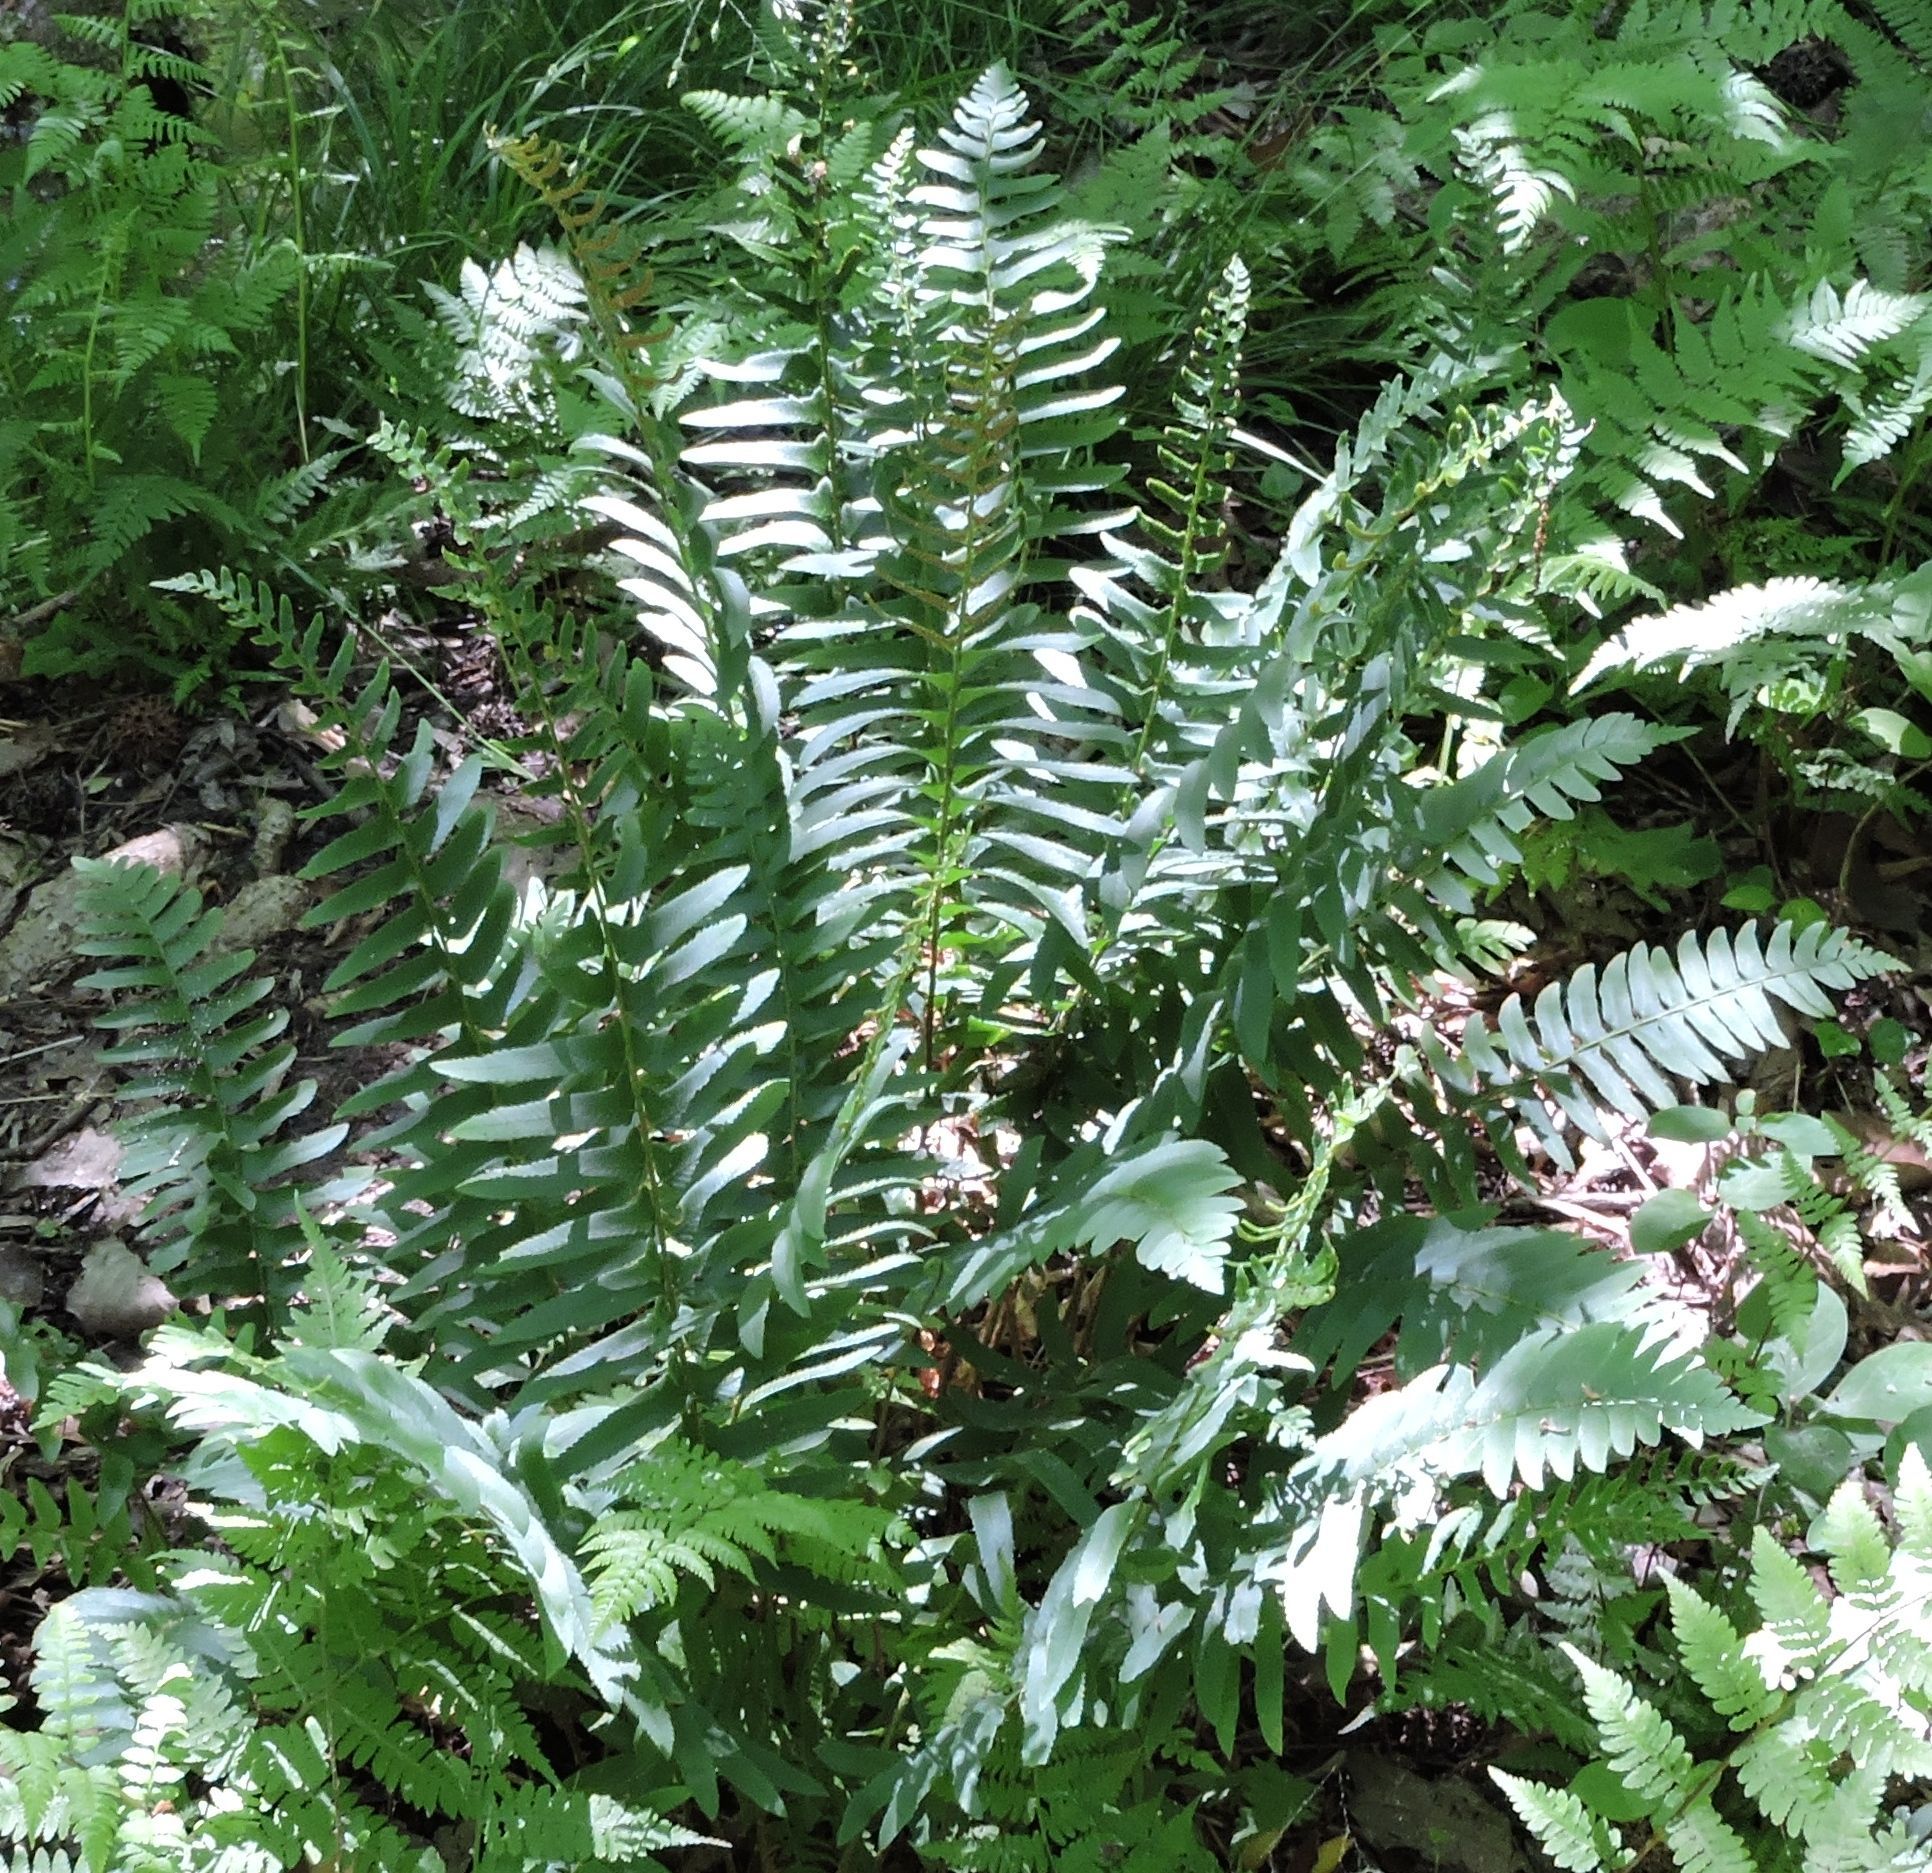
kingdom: Plantae
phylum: Tracheophyta
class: Polypodiopsida
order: Polypodiales
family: Dryopteridaceae
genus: Polystichum
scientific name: Polystichum acrostichoides
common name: Christmas fern
